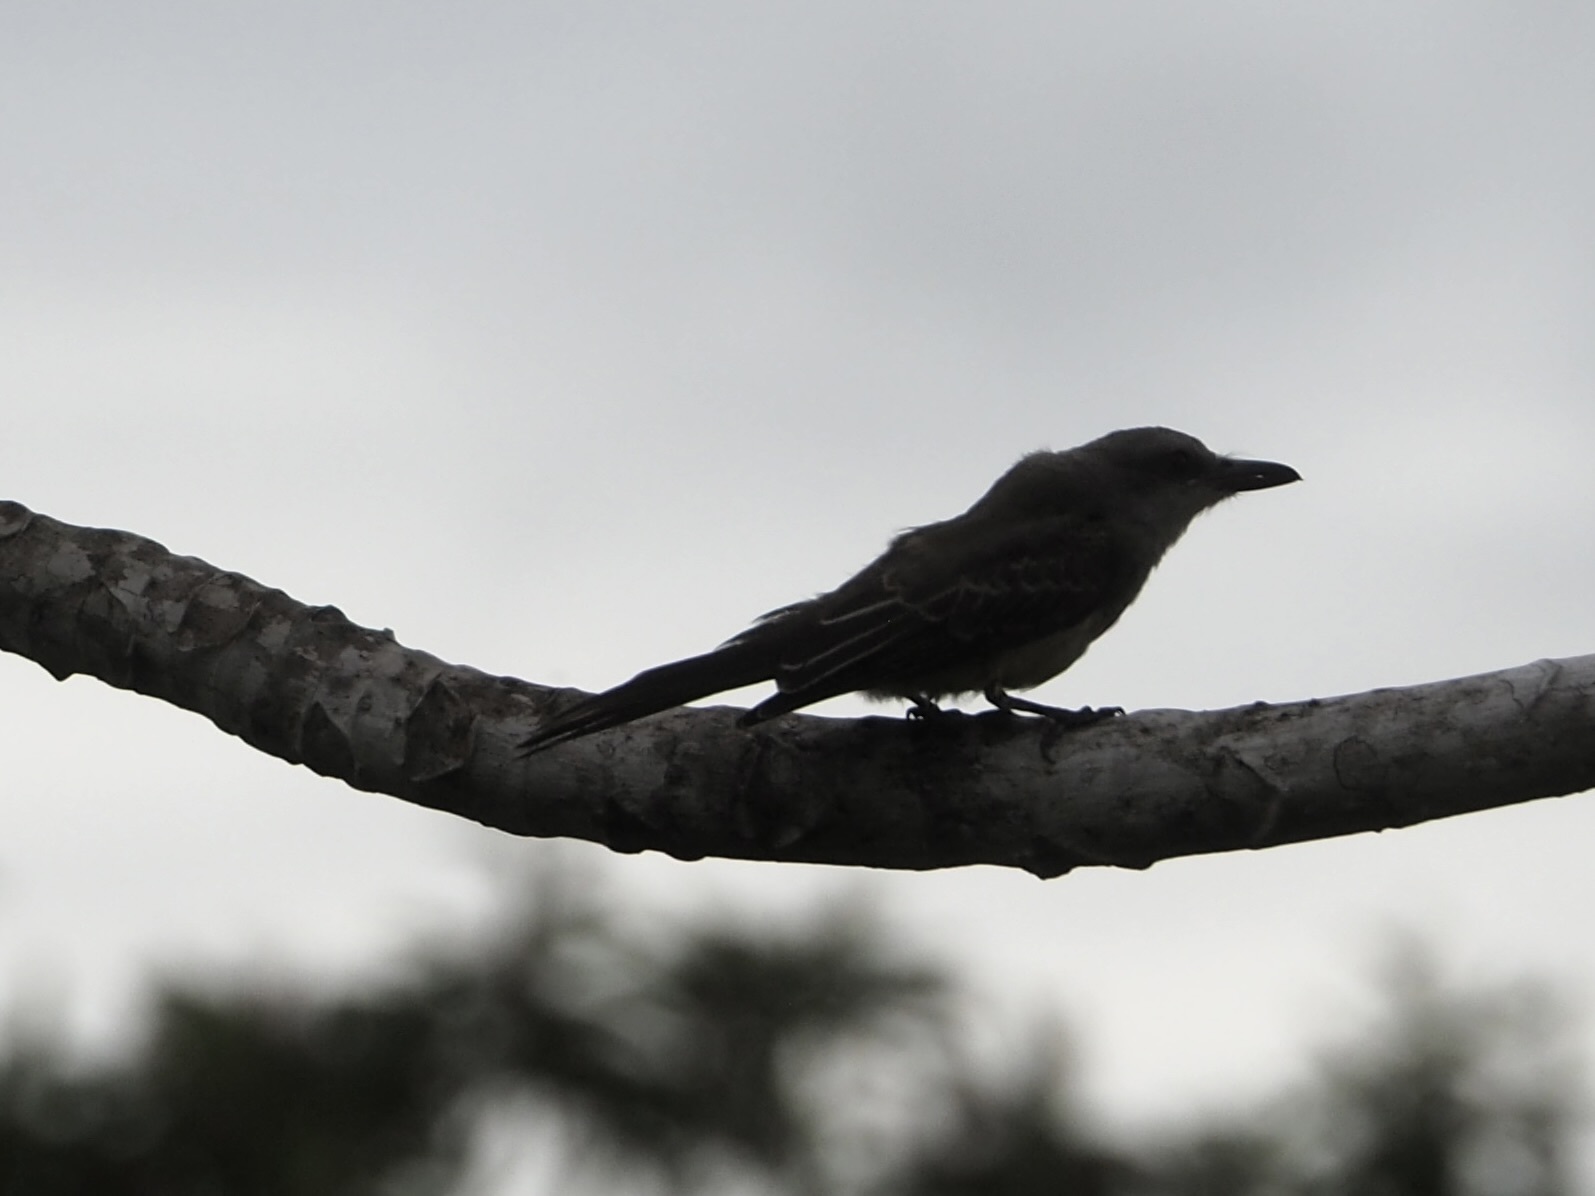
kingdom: Animalia
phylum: Chordata
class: Aves
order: Passeriformes
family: Tyrannidae
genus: Tyrannus
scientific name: Tyrannus melancholicus
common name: Tropical kingbird
